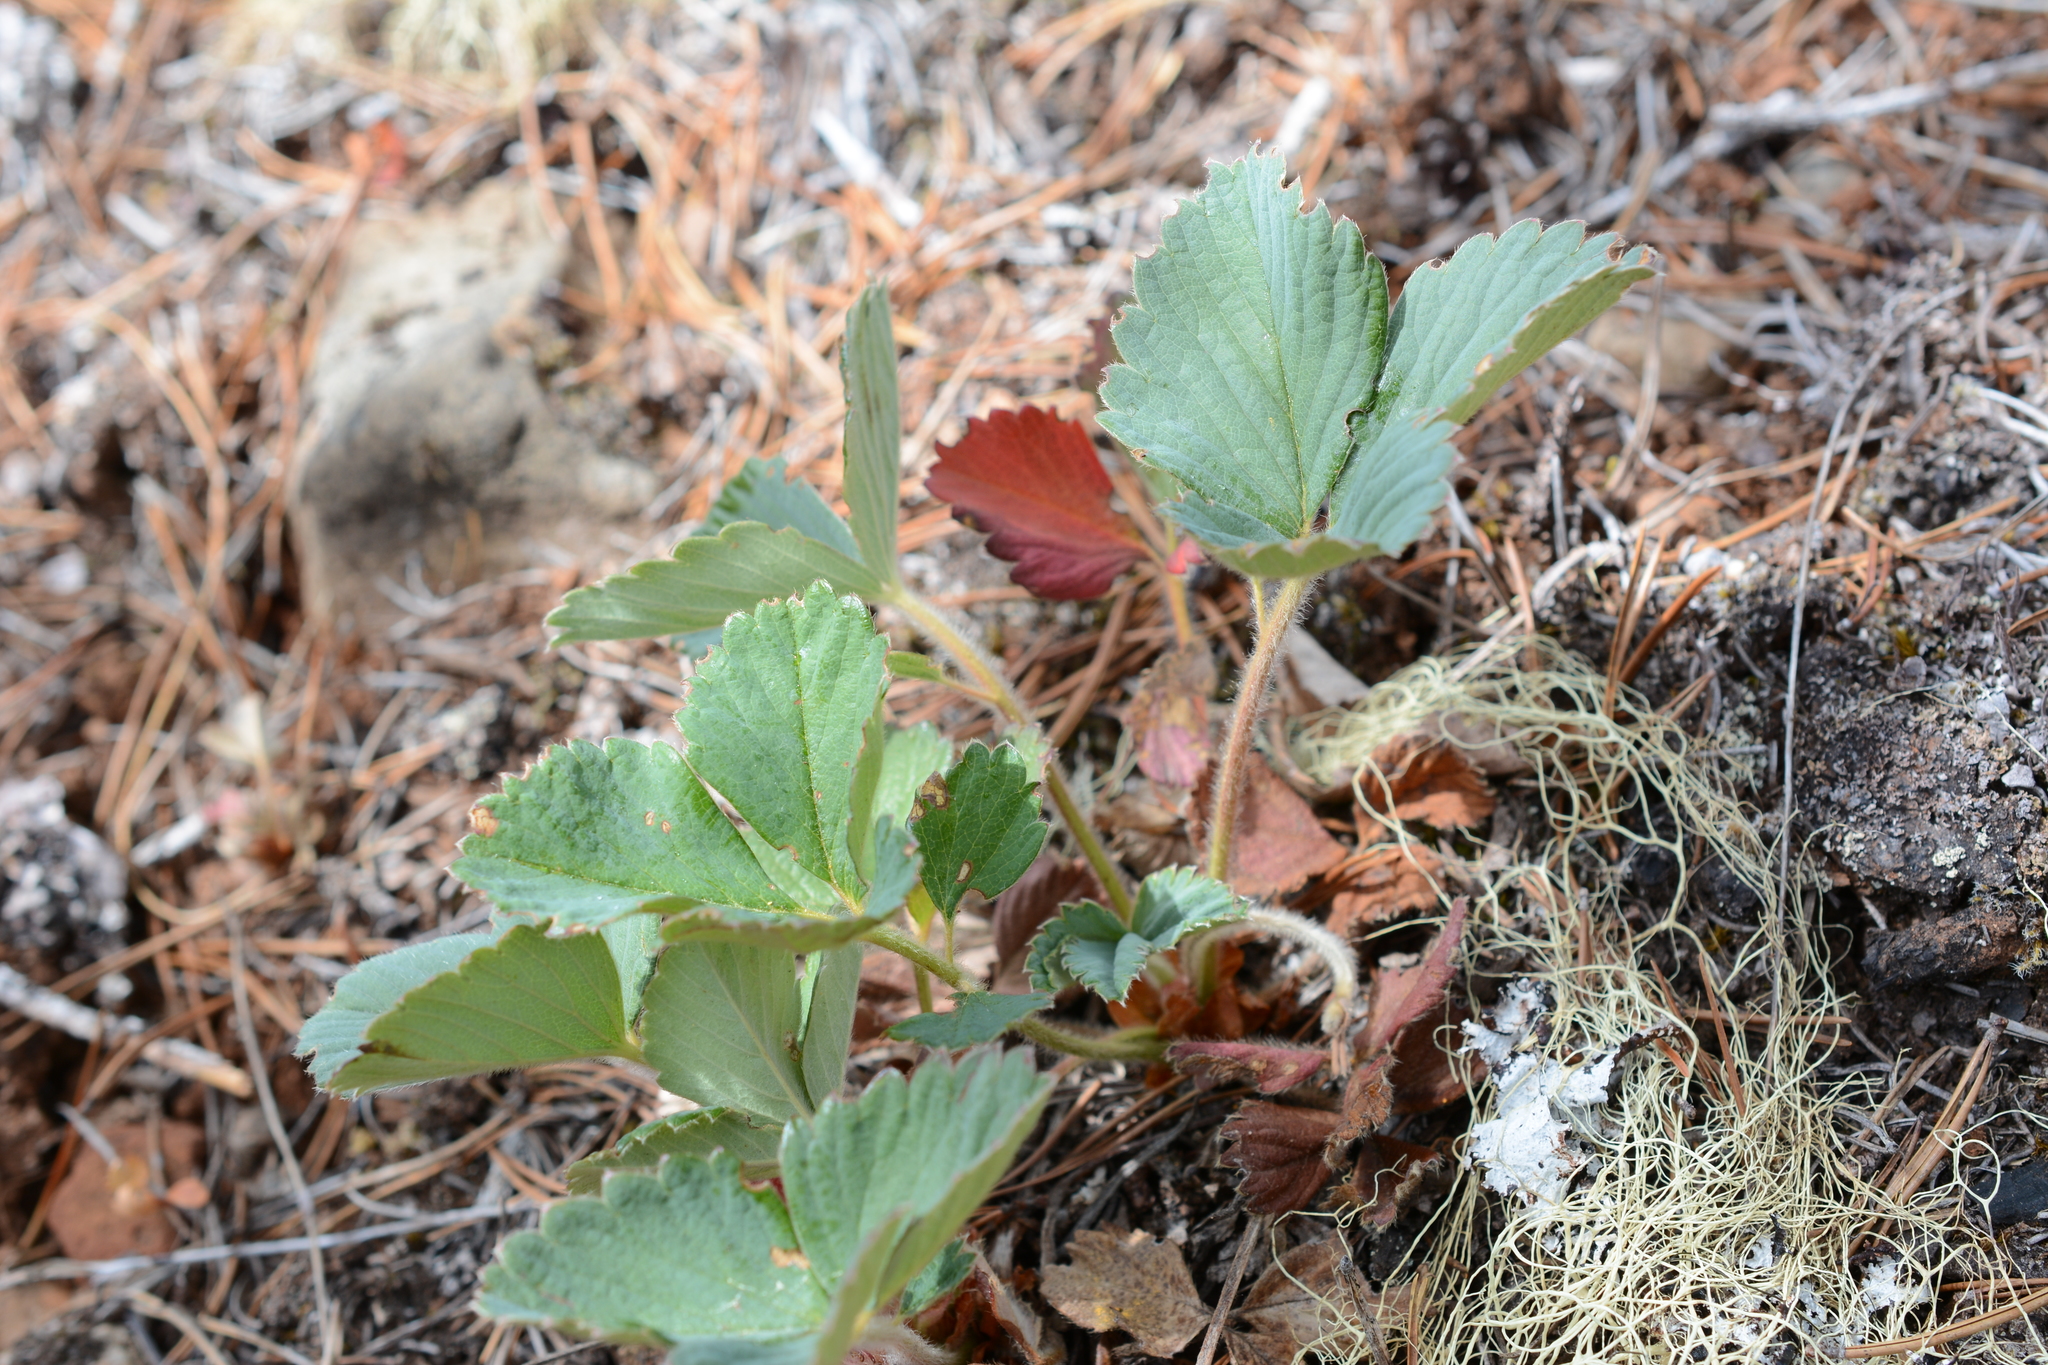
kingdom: Plantae
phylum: Tracheophyta
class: Magnoliopsida
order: Rosales
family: Rosaceae
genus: Fragaria
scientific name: Fragaria virginiana
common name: Thickleaved wild strawberry
